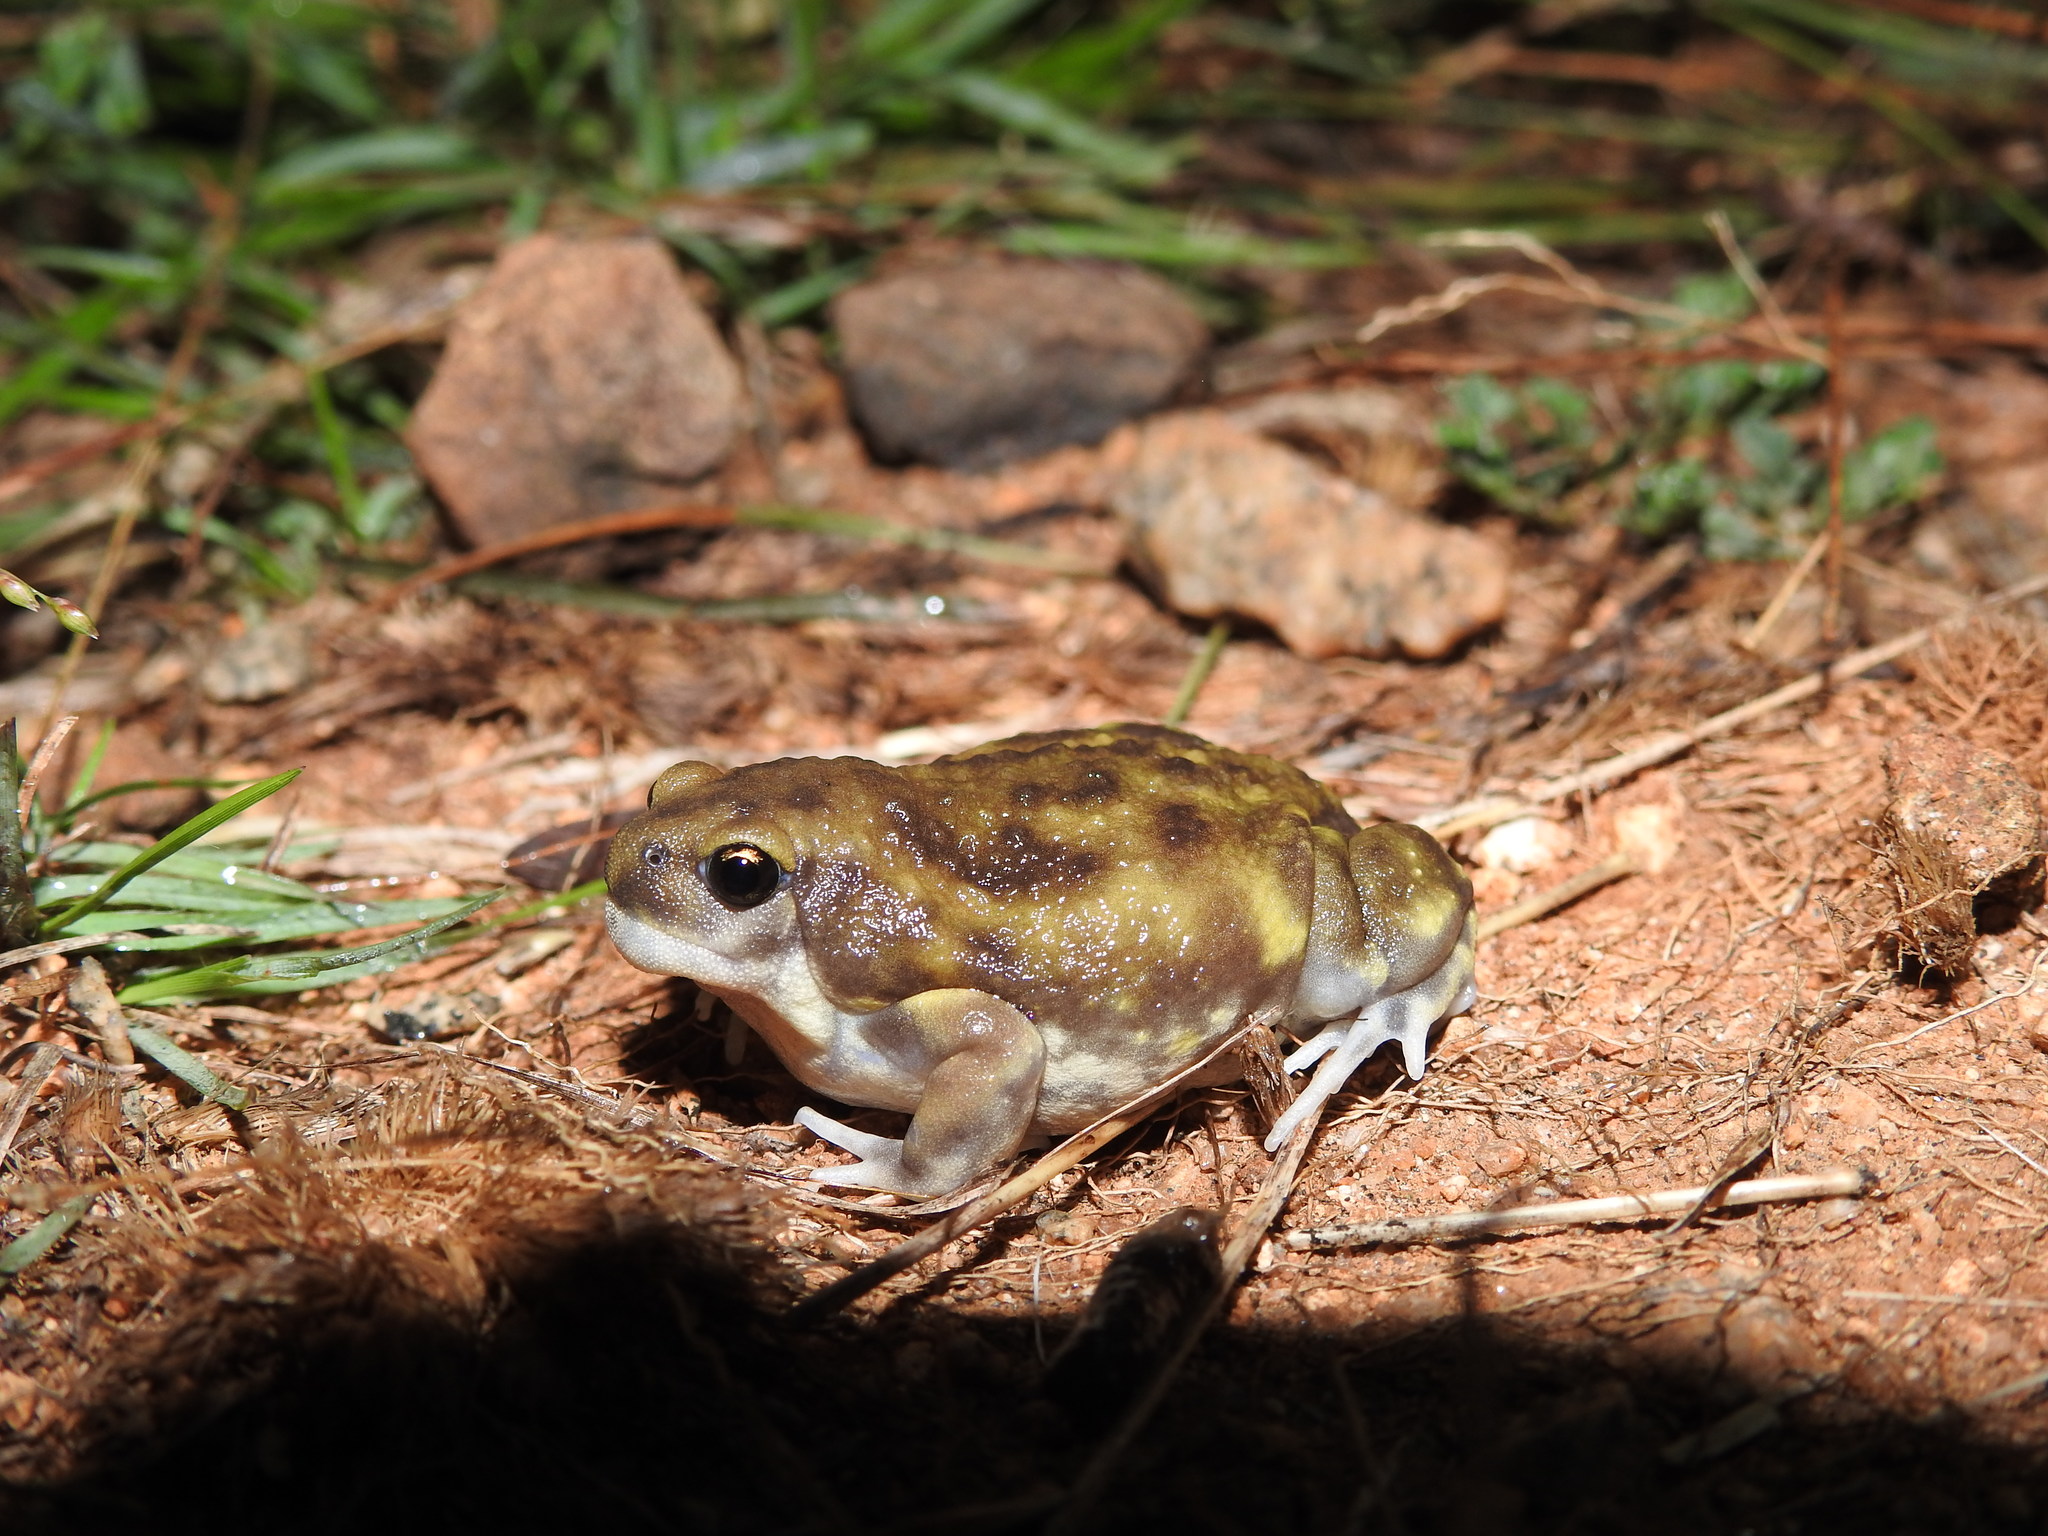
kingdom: Animalia
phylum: Chordata
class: Amphibia
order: Anura
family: Microhylidae
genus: Uperodon
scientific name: Uperodon systoma
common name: Balloon frog
